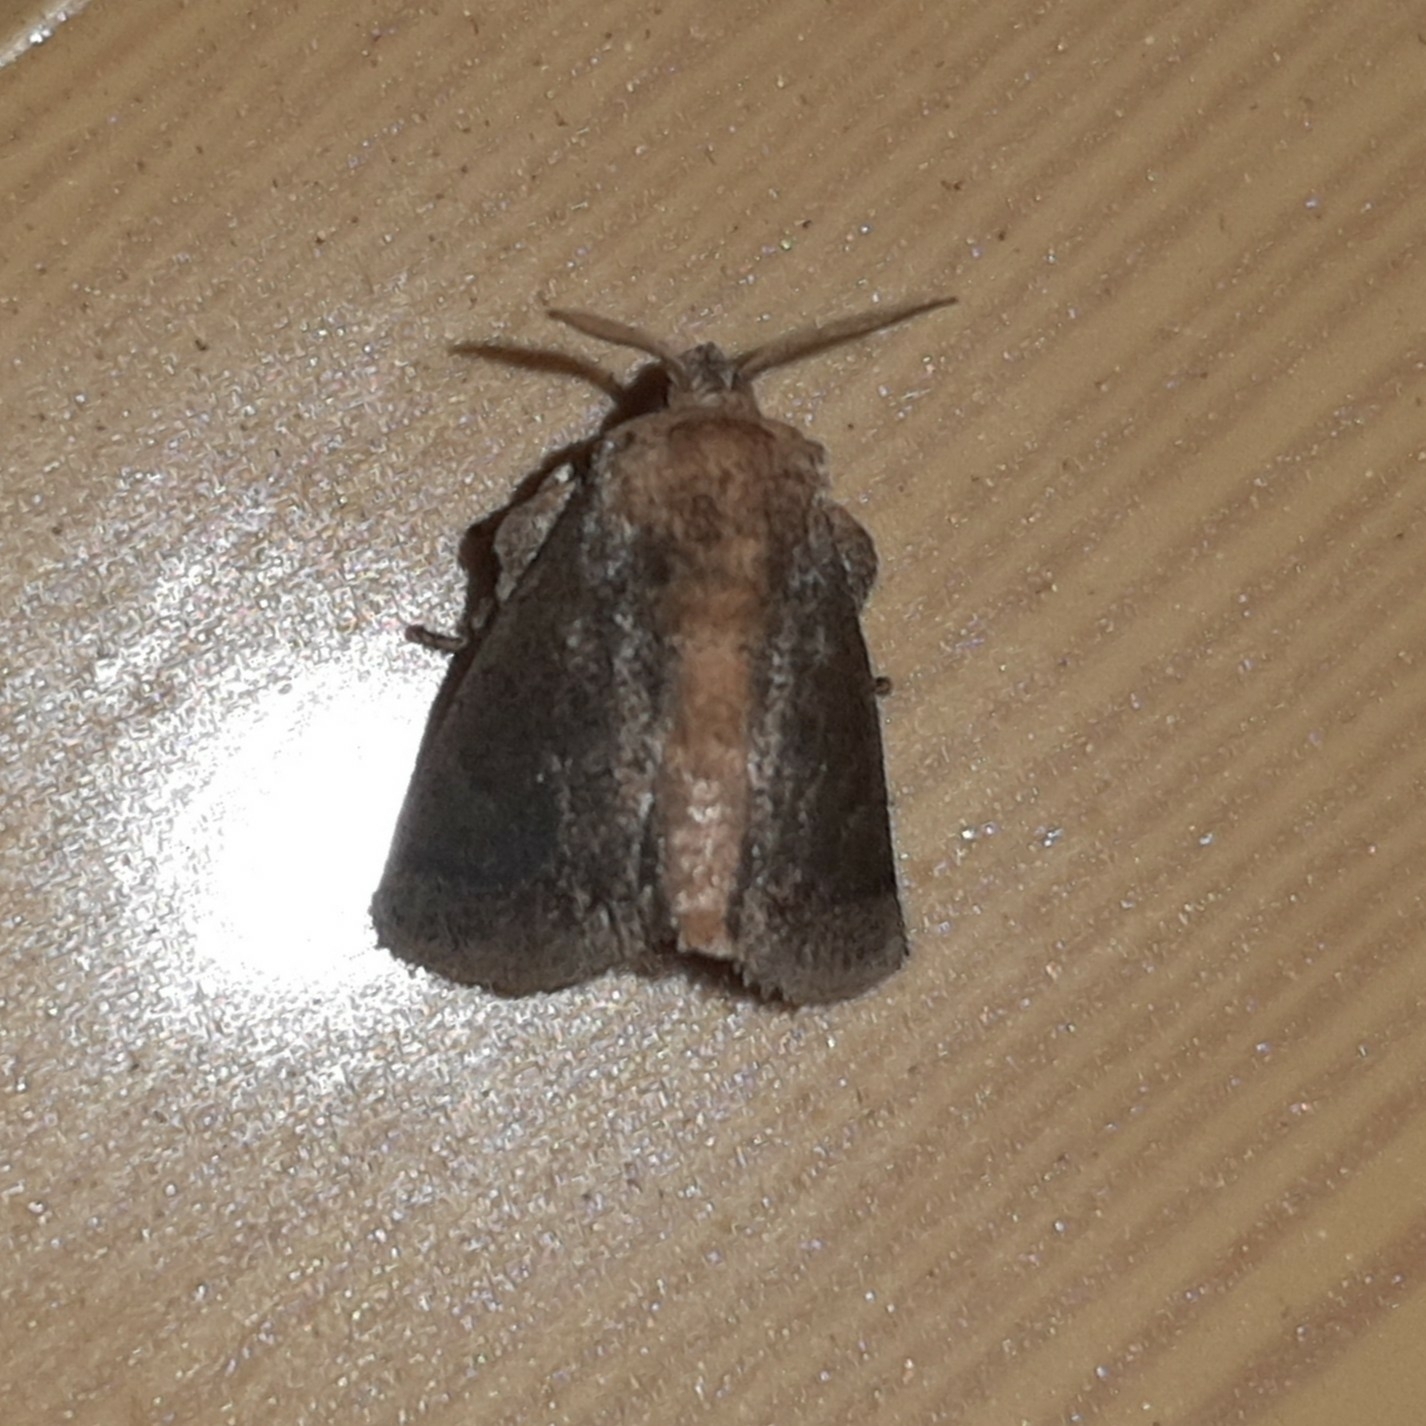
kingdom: Animalia
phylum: Arthropoda
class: Insecta
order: Lepidoptera
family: Limacodidae
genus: Natada
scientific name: Natada
